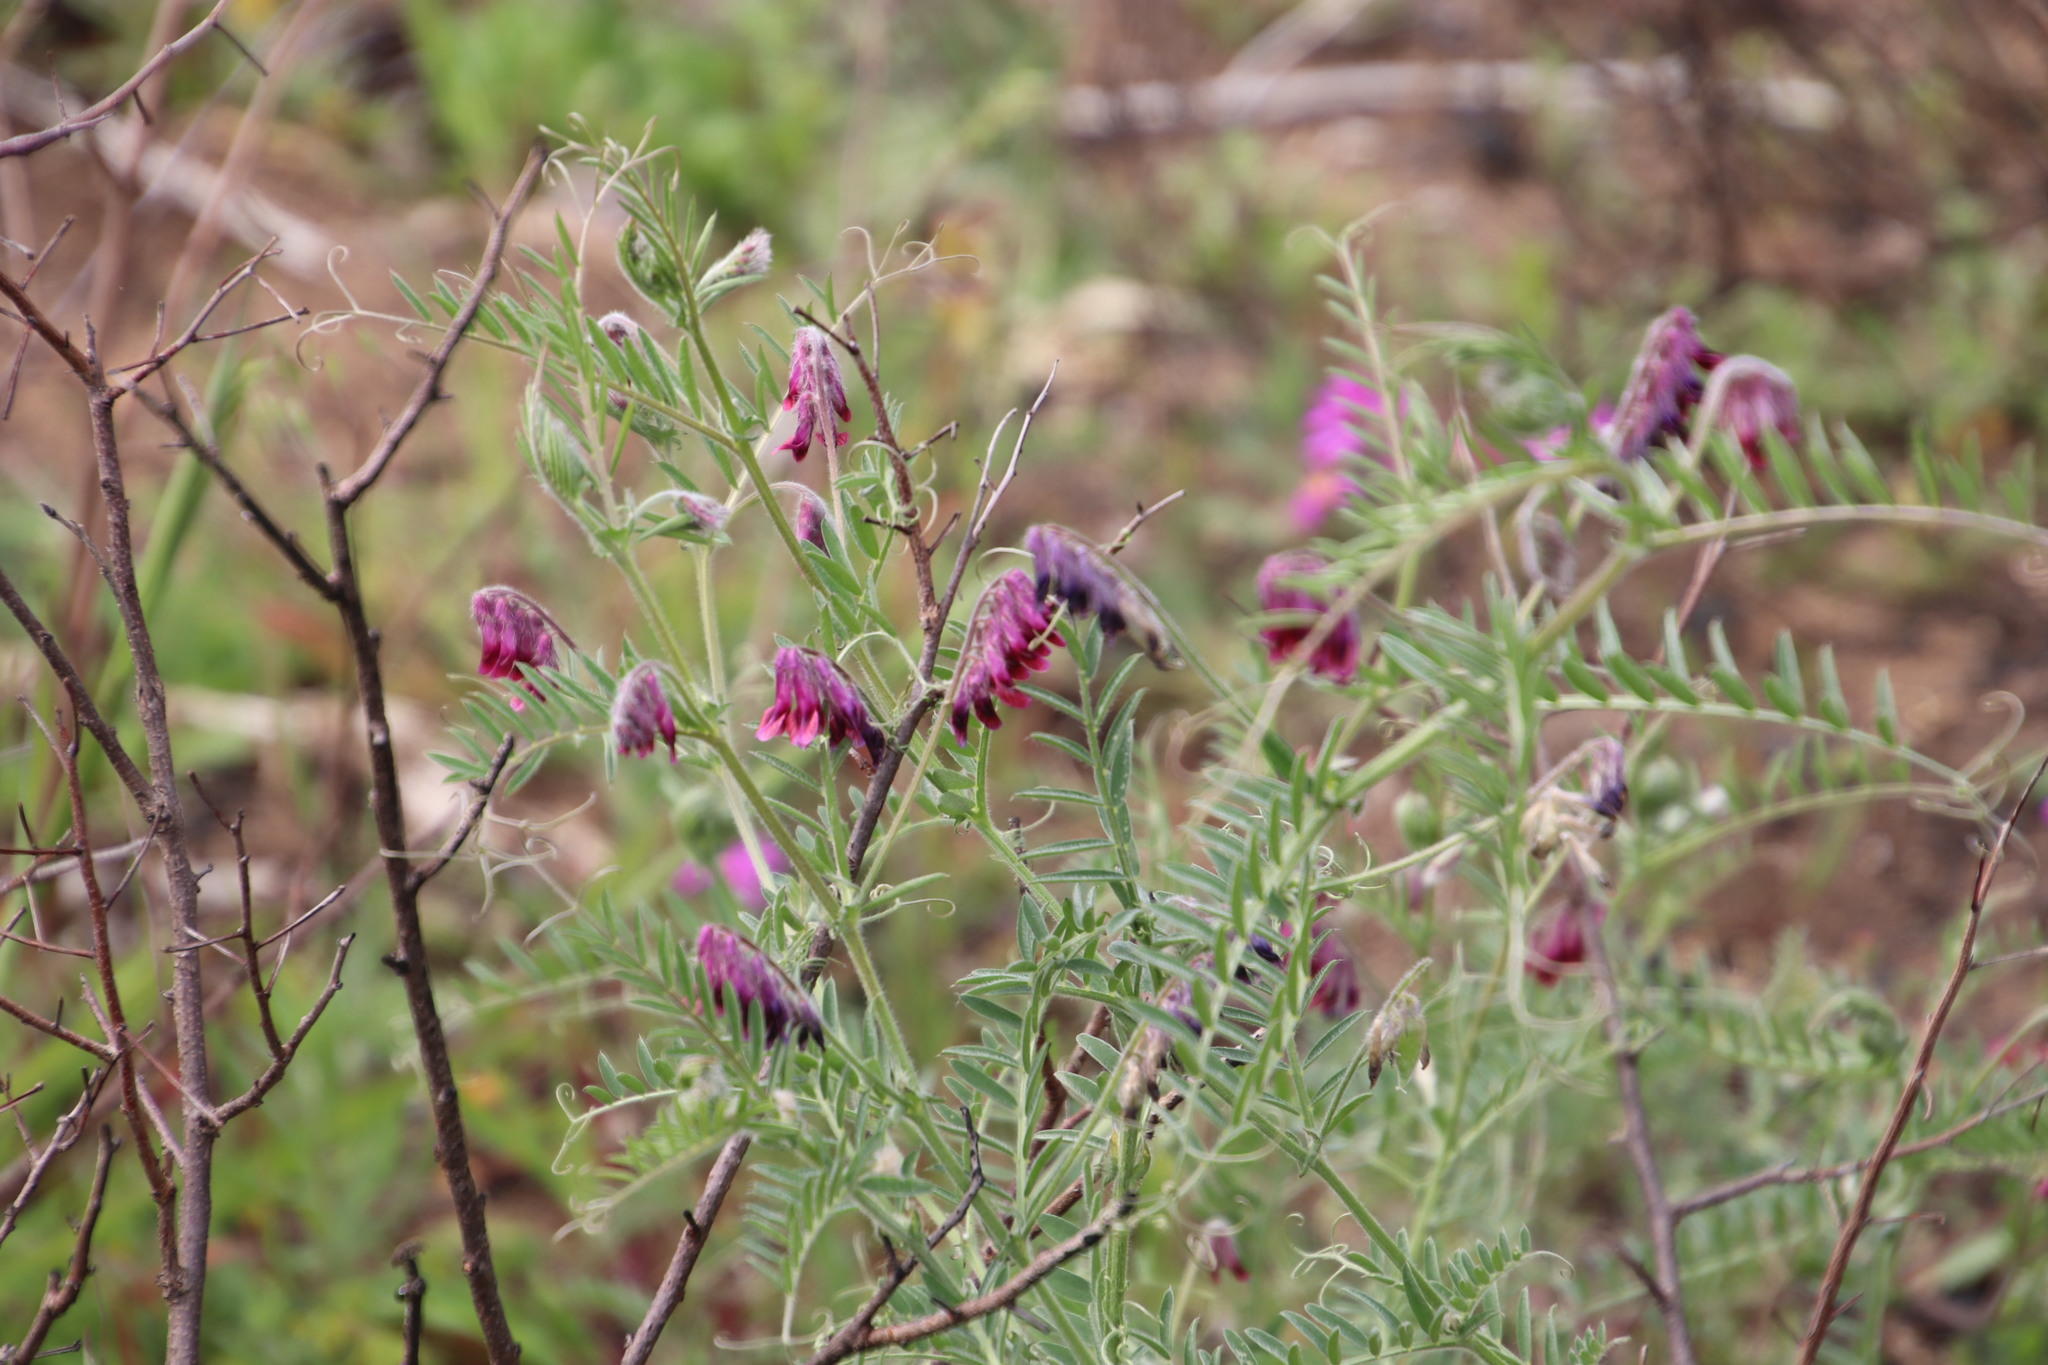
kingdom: Plantae
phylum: Tracheophyta
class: Magnoliopsida
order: Fabales
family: Fabaceae
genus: Vicia
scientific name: Vicia benghalensis
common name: Purple vetch
